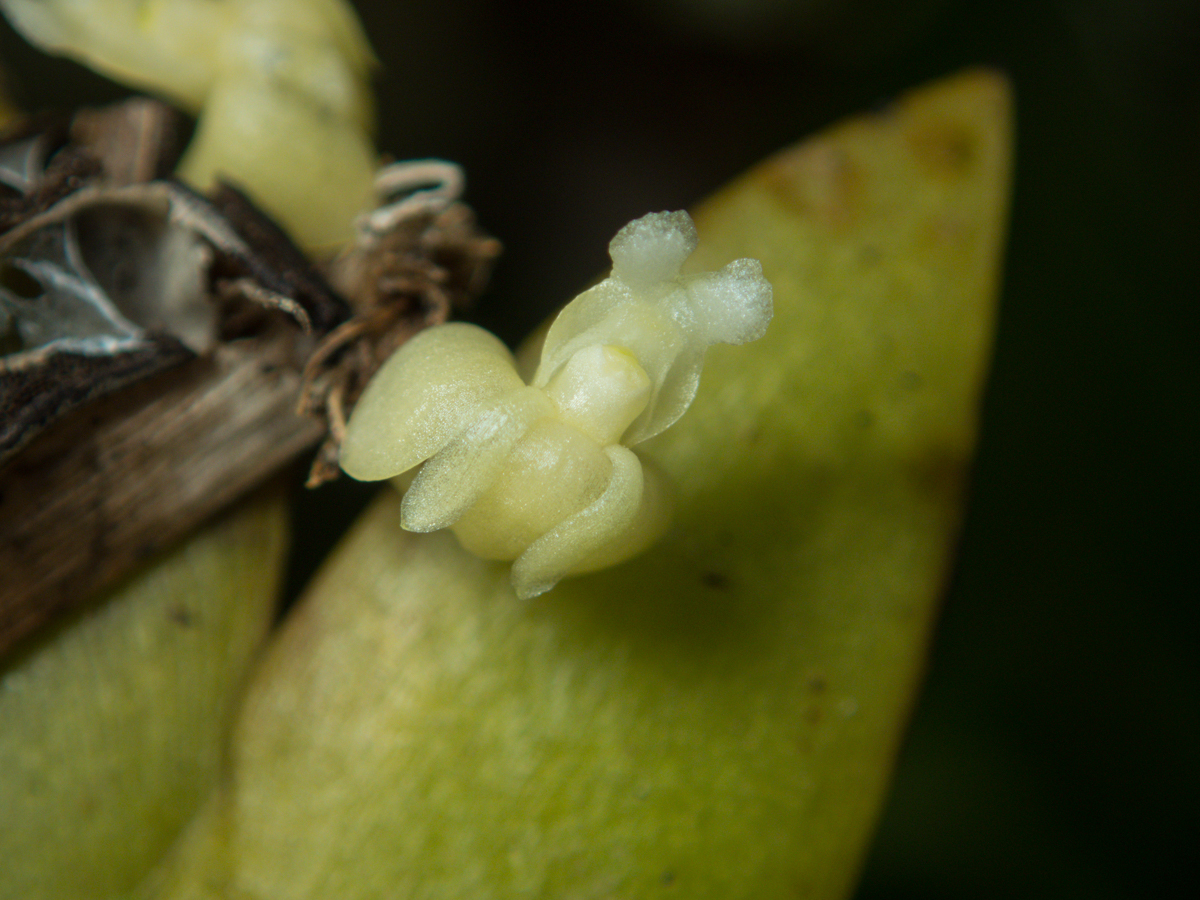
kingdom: Plantae
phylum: Tracheophyta
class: Liliopsida
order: Asparagales
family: Orchidaceae
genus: Dendrobium
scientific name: Dendrobium aloifolium
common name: Aloe-like dendrobium
